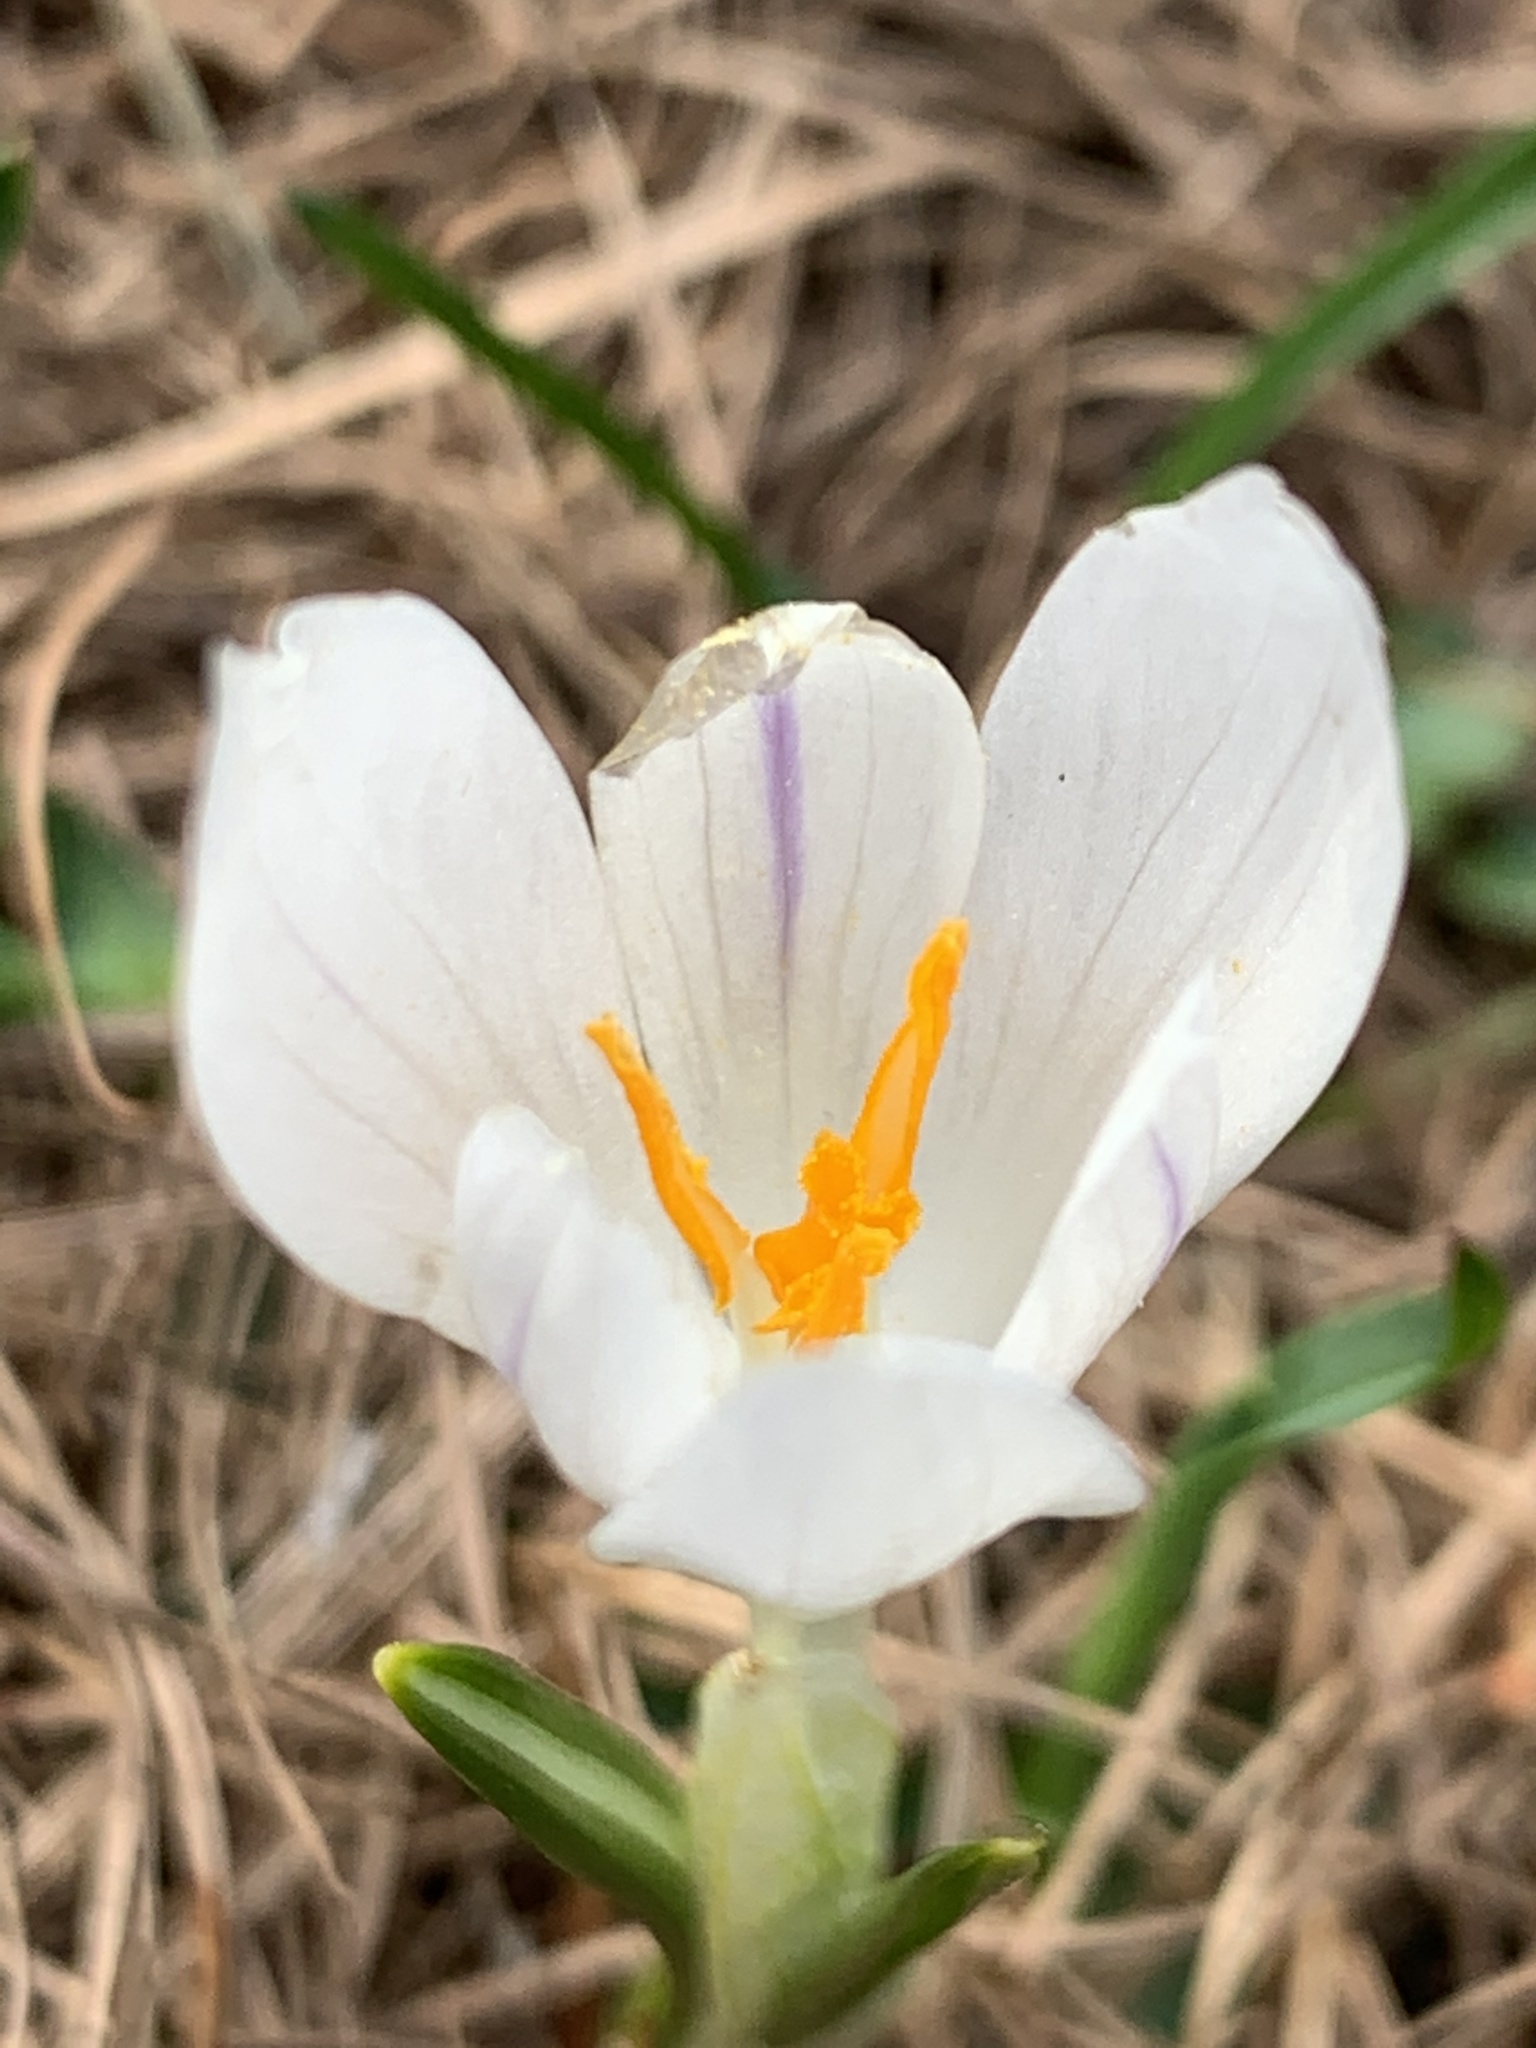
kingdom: Plantae
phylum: Tracheophyta
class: Liliopsida
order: Asparagales
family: Iridaceae
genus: Crocus
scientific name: Crocus vernus
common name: Spring crocus
